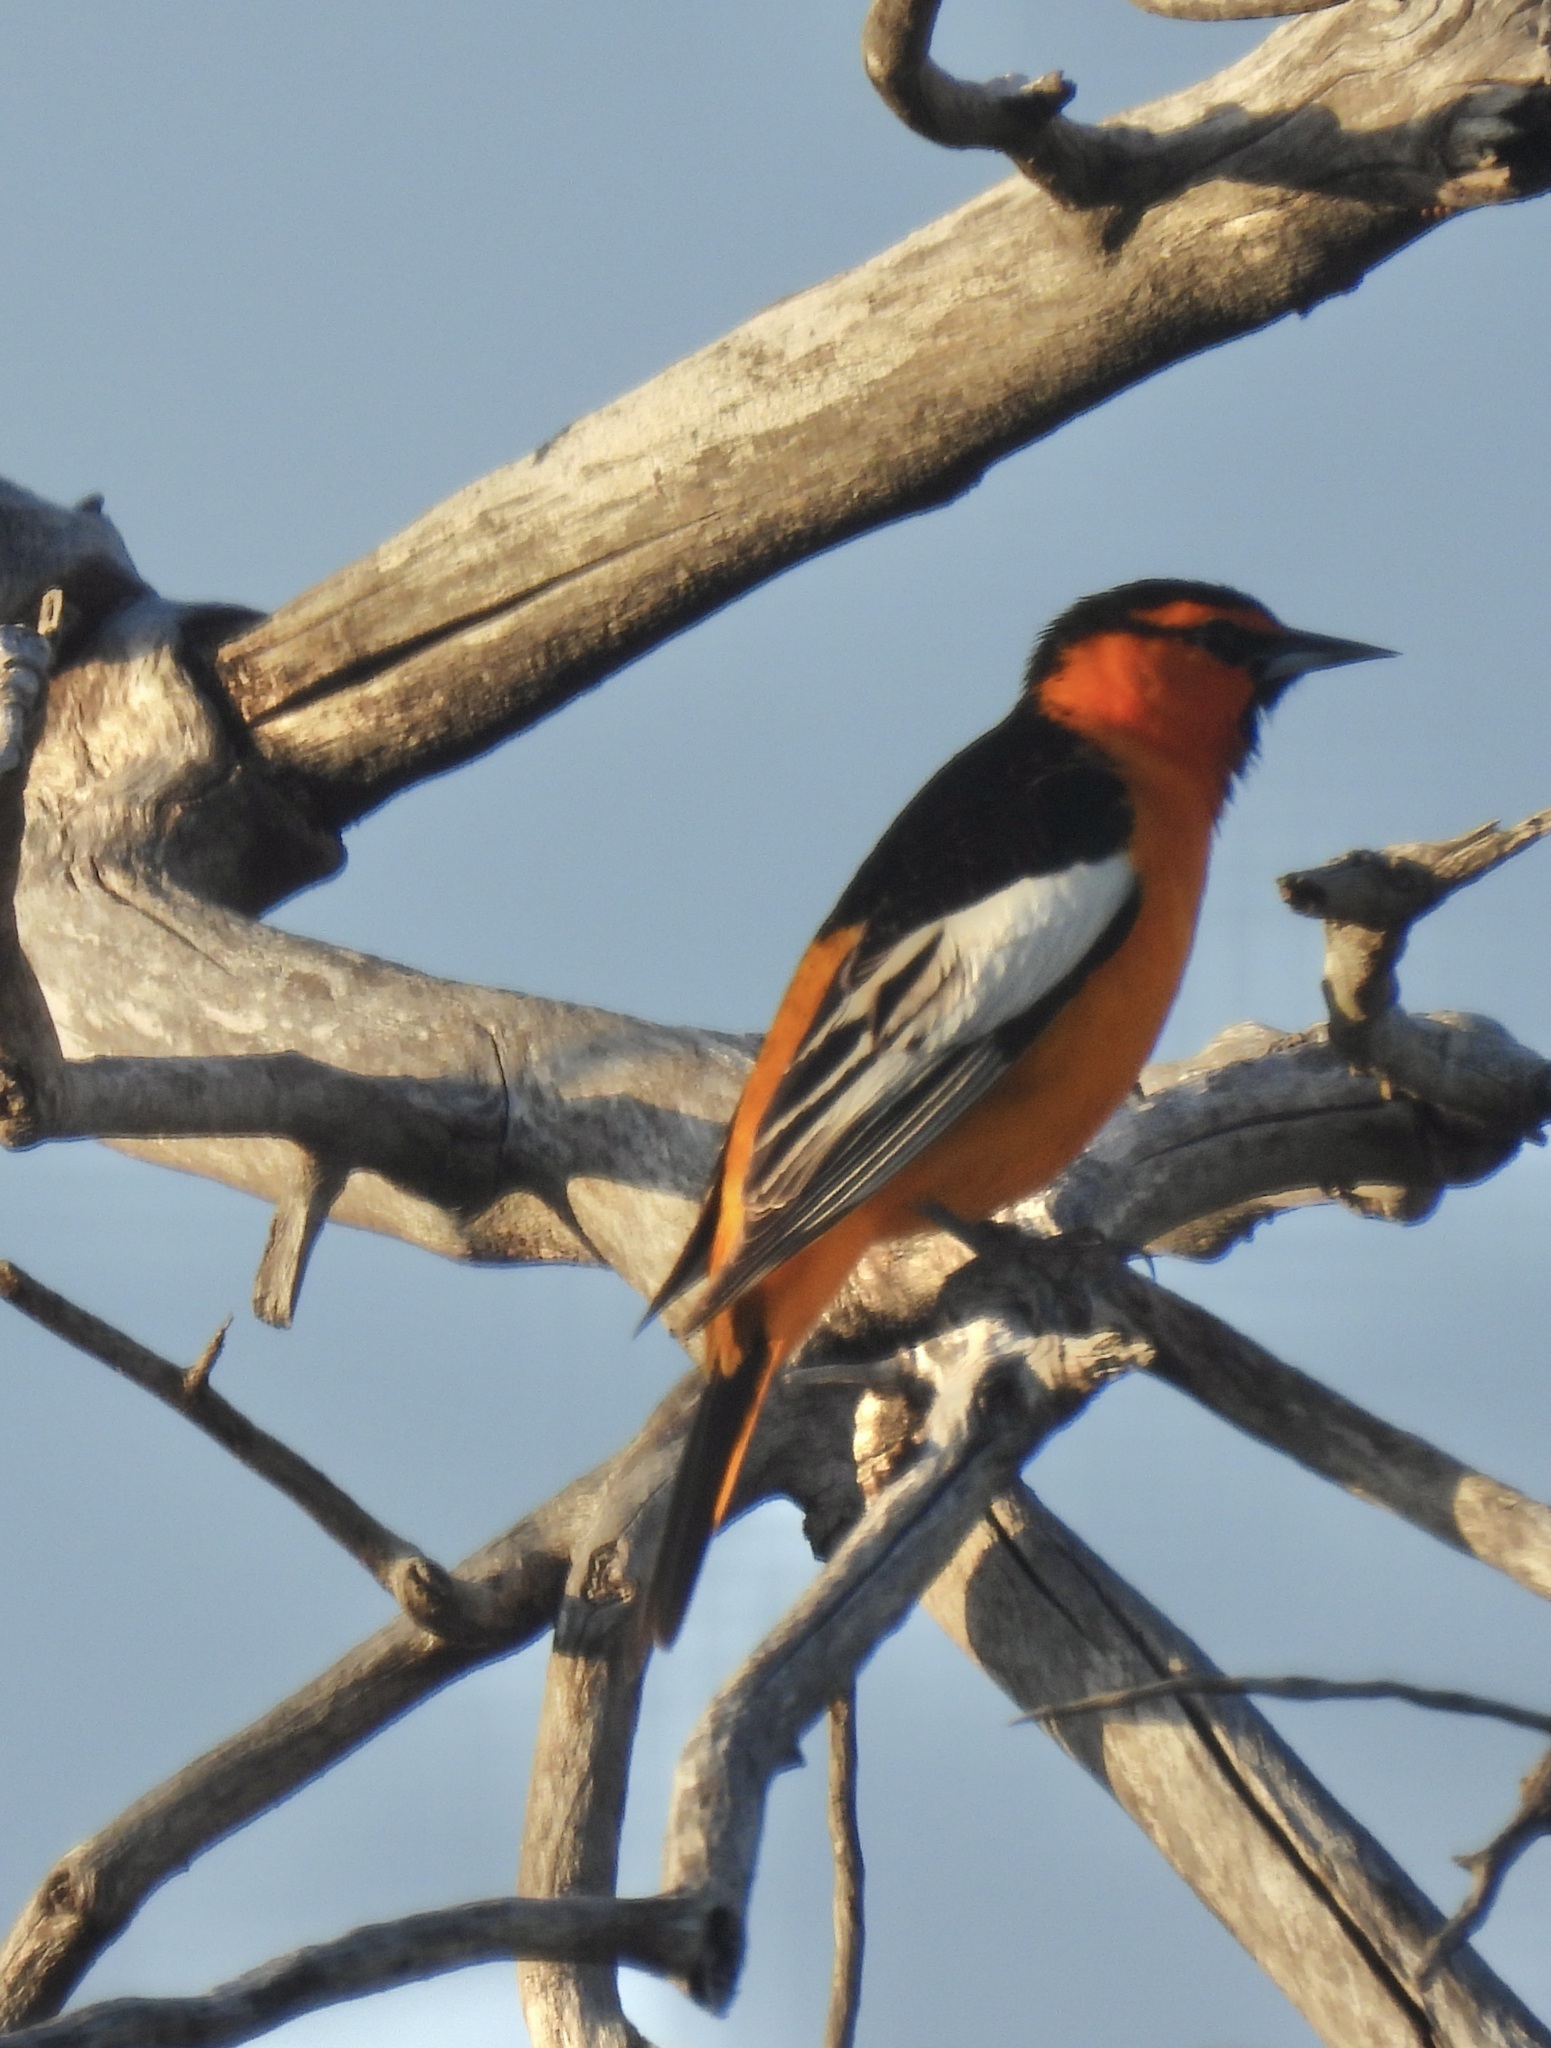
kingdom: Animalia
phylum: Chordata
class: Aves
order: Passeriformes
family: Icteridae
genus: Icterus
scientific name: Icterus bullockii
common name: Bullock's oriole
